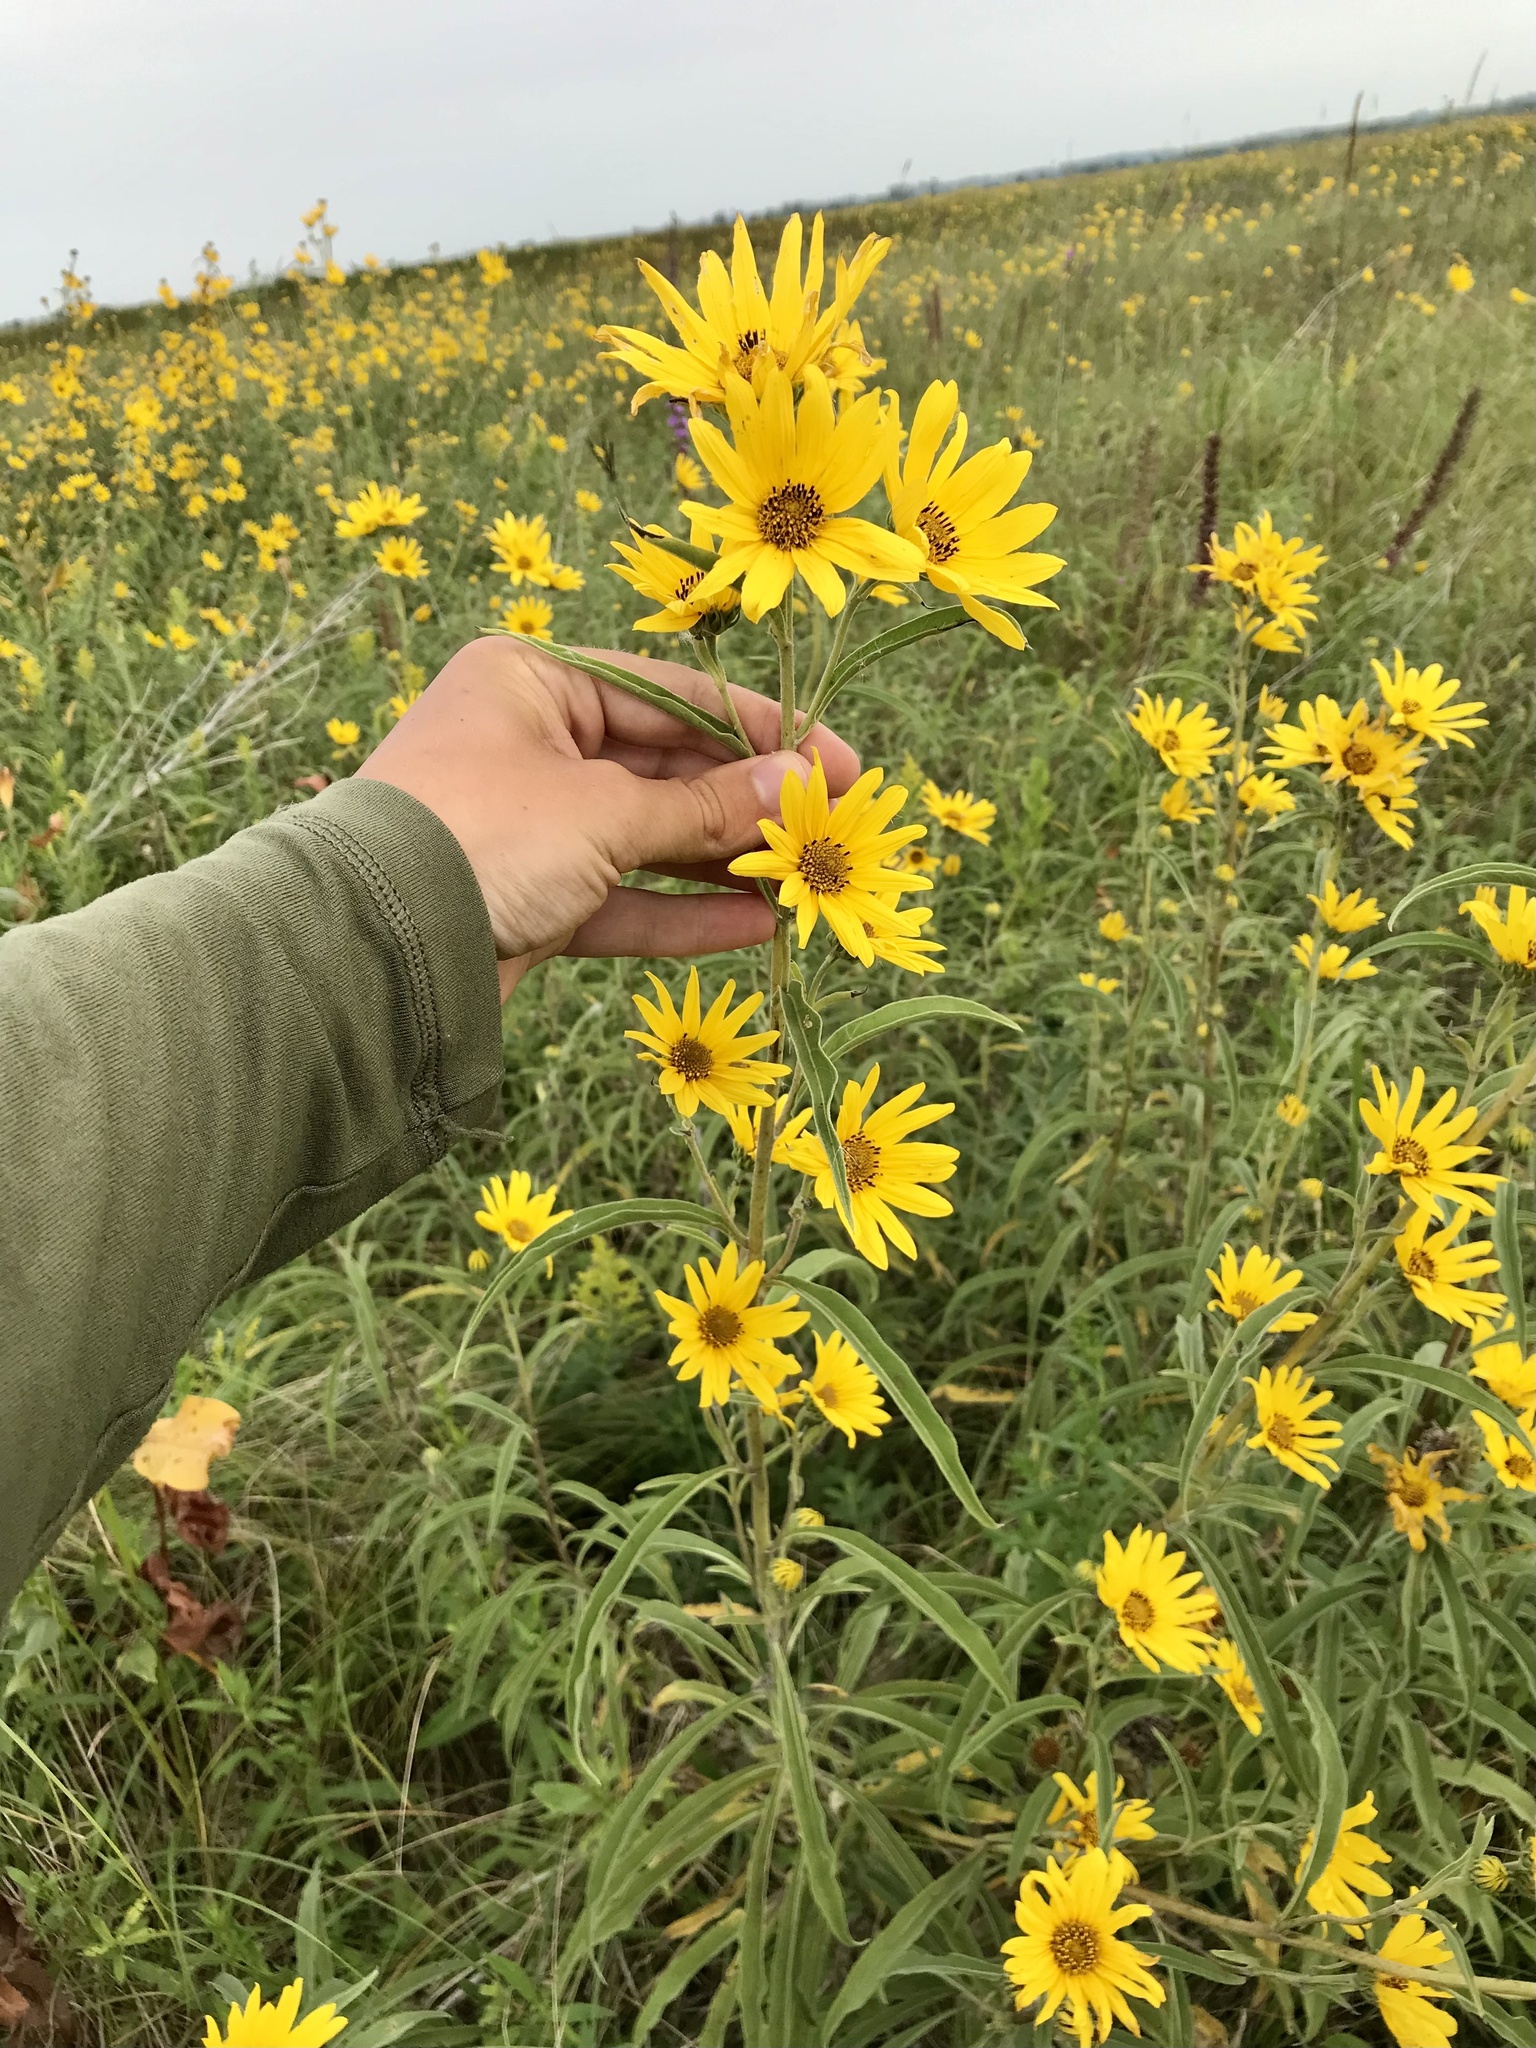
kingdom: Plantae
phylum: Tracheophyta
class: Magnoliopsida
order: Asterales
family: Asteraceae
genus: Helianthus
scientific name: Helianthus maximiliani
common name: Maximilian's sunflower
